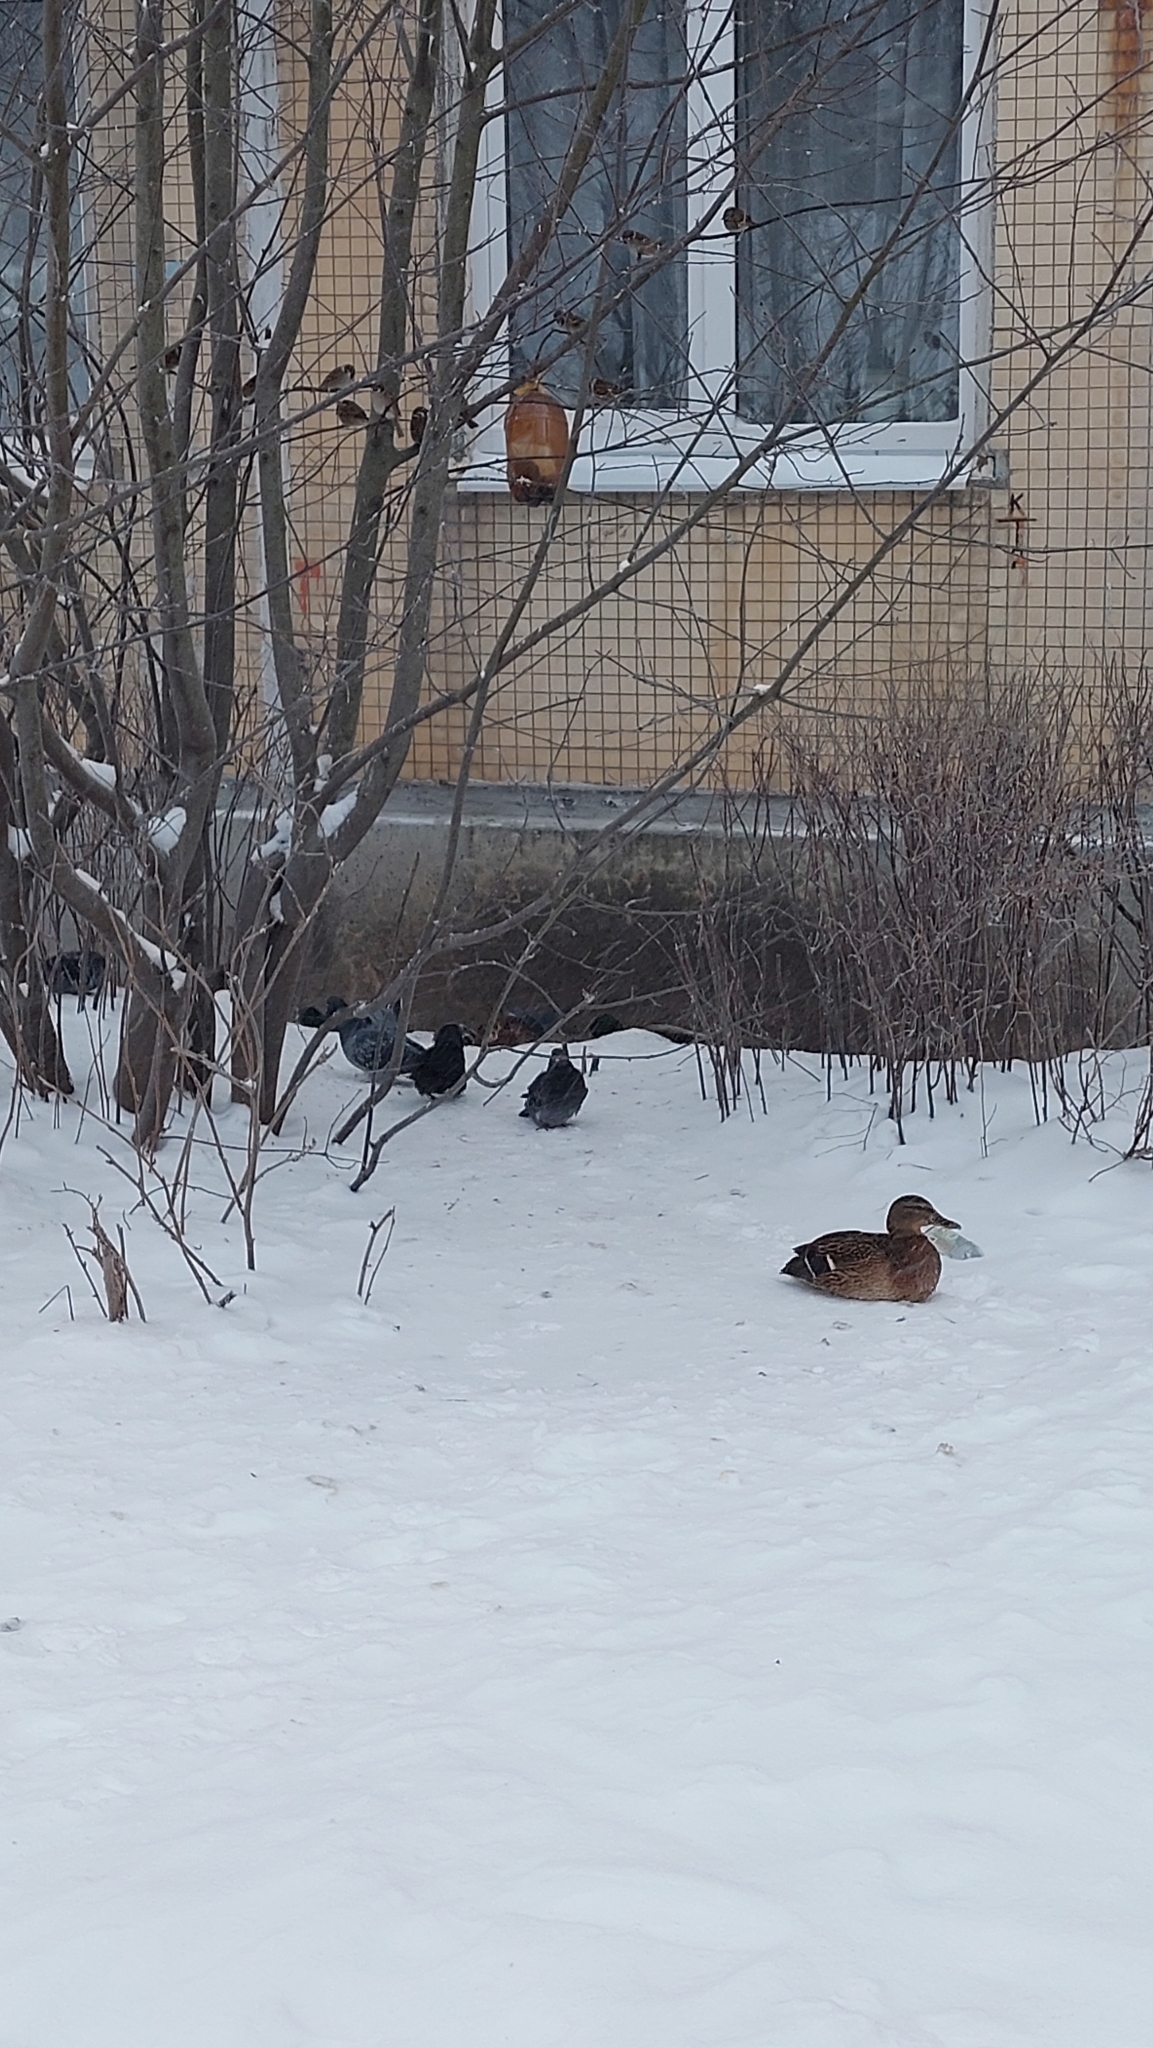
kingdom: Animalia
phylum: Chordata
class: Aves
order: Anseriformes
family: Anatidae
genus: Anas
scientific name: Anas platyrhynchos
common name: Mallard
